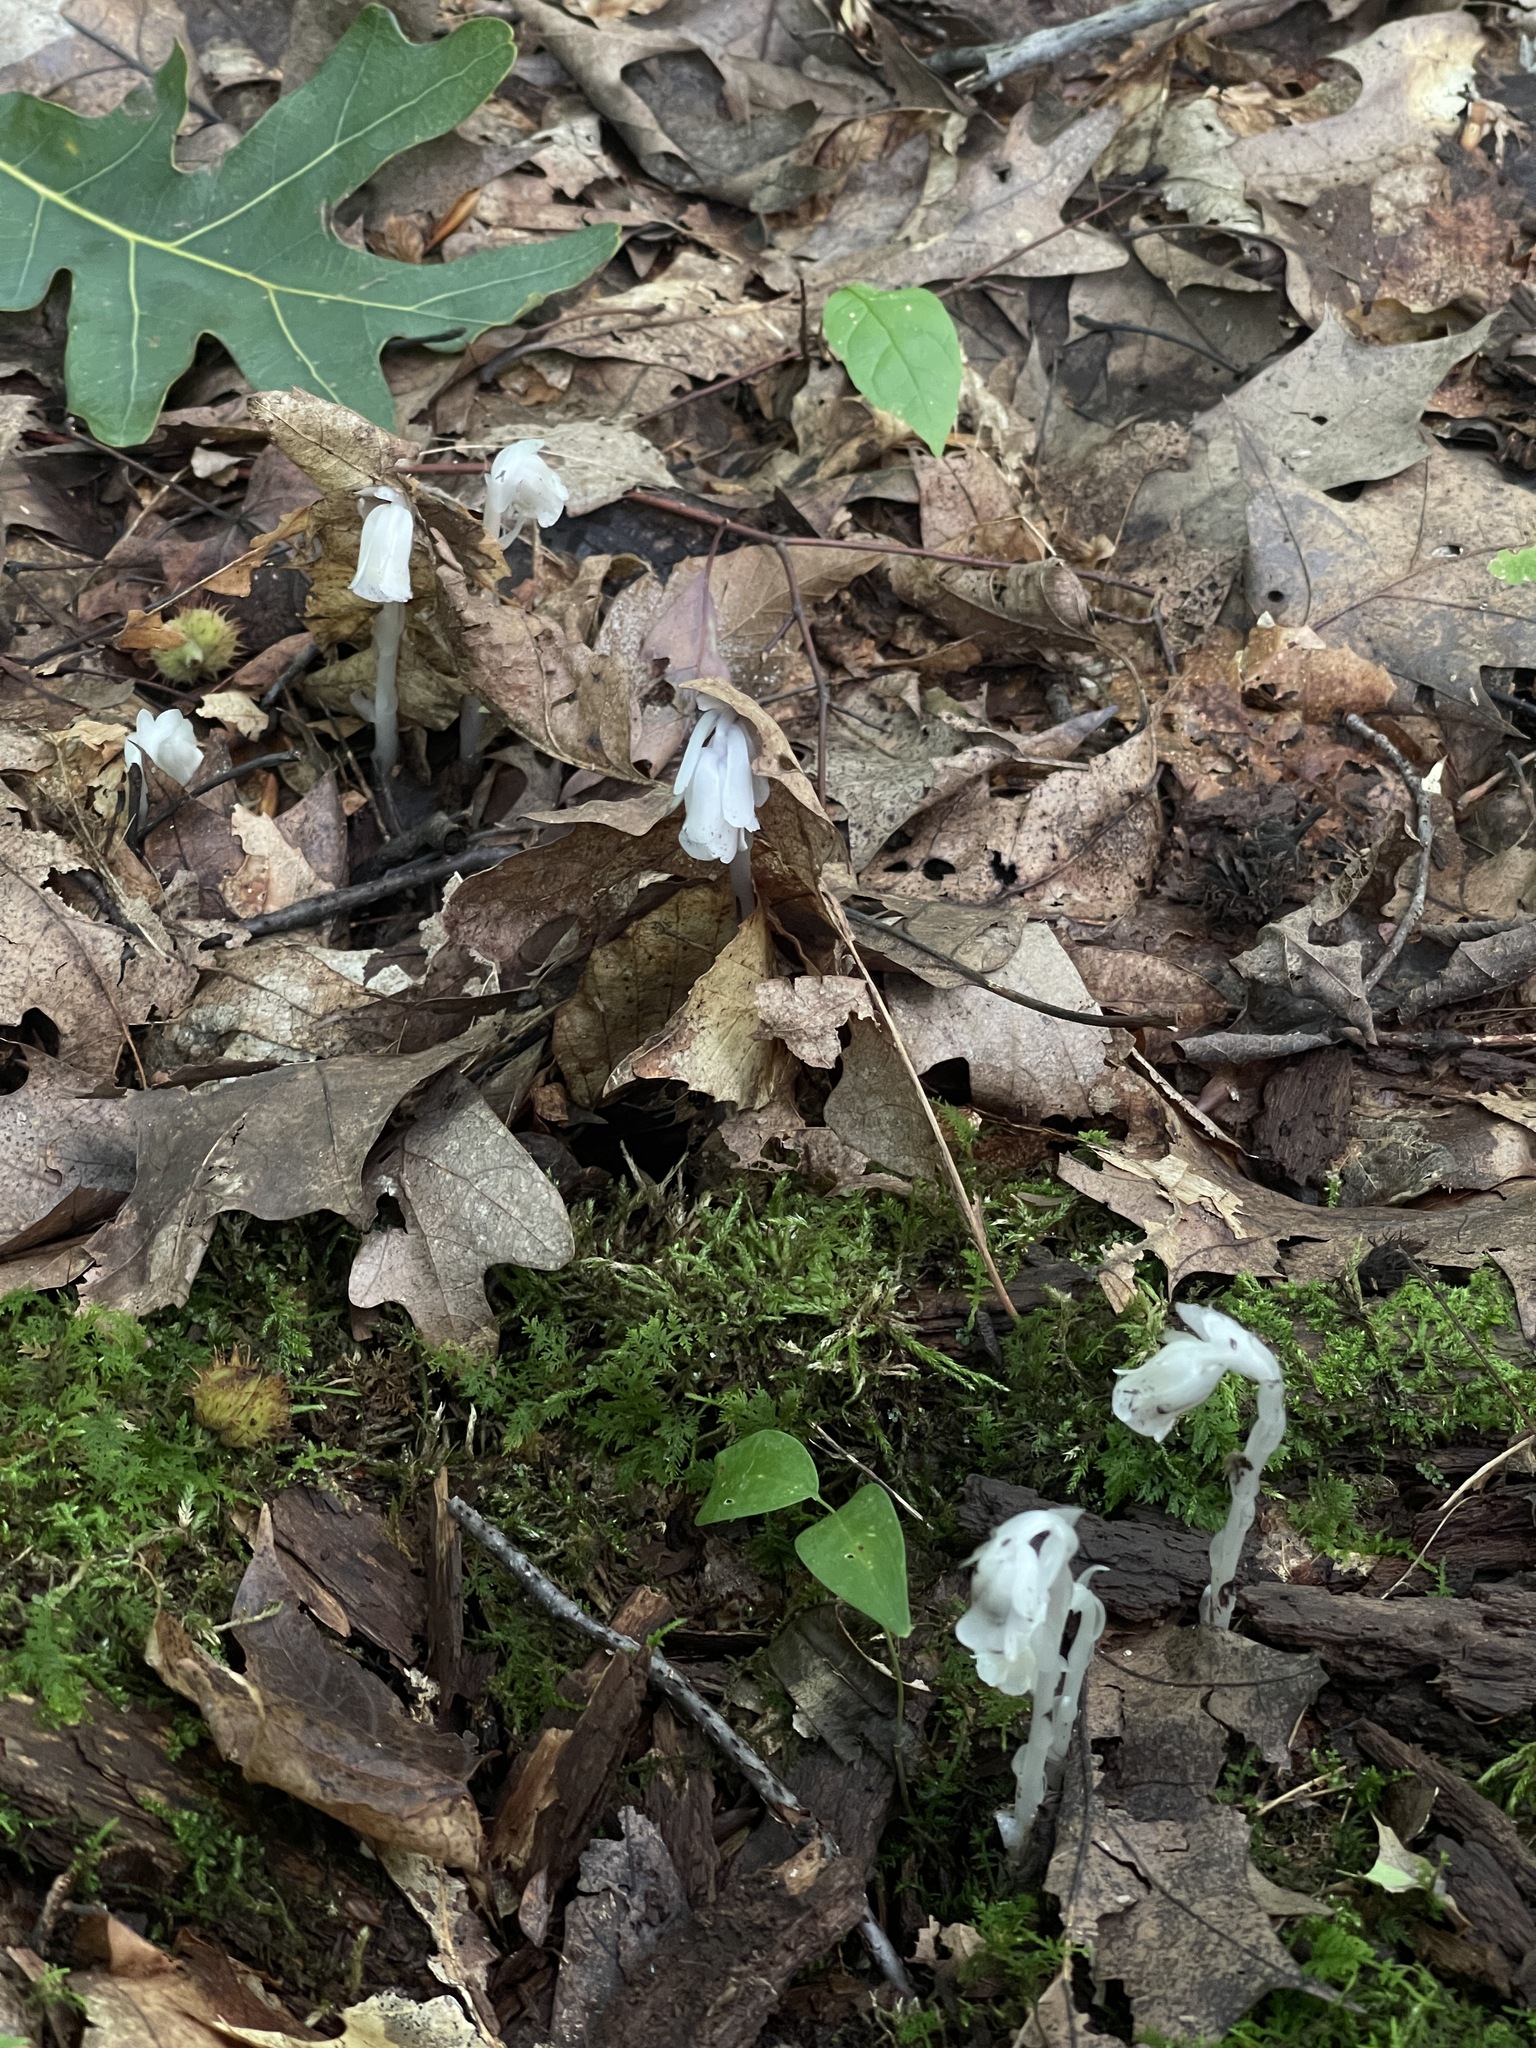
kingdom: Plantae
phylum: Tracheophyta
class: Magnoliopsida
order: Ericales
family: Ericaceae
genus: Monotropa
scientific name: Monotropa uniflora
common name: Convulsion root
